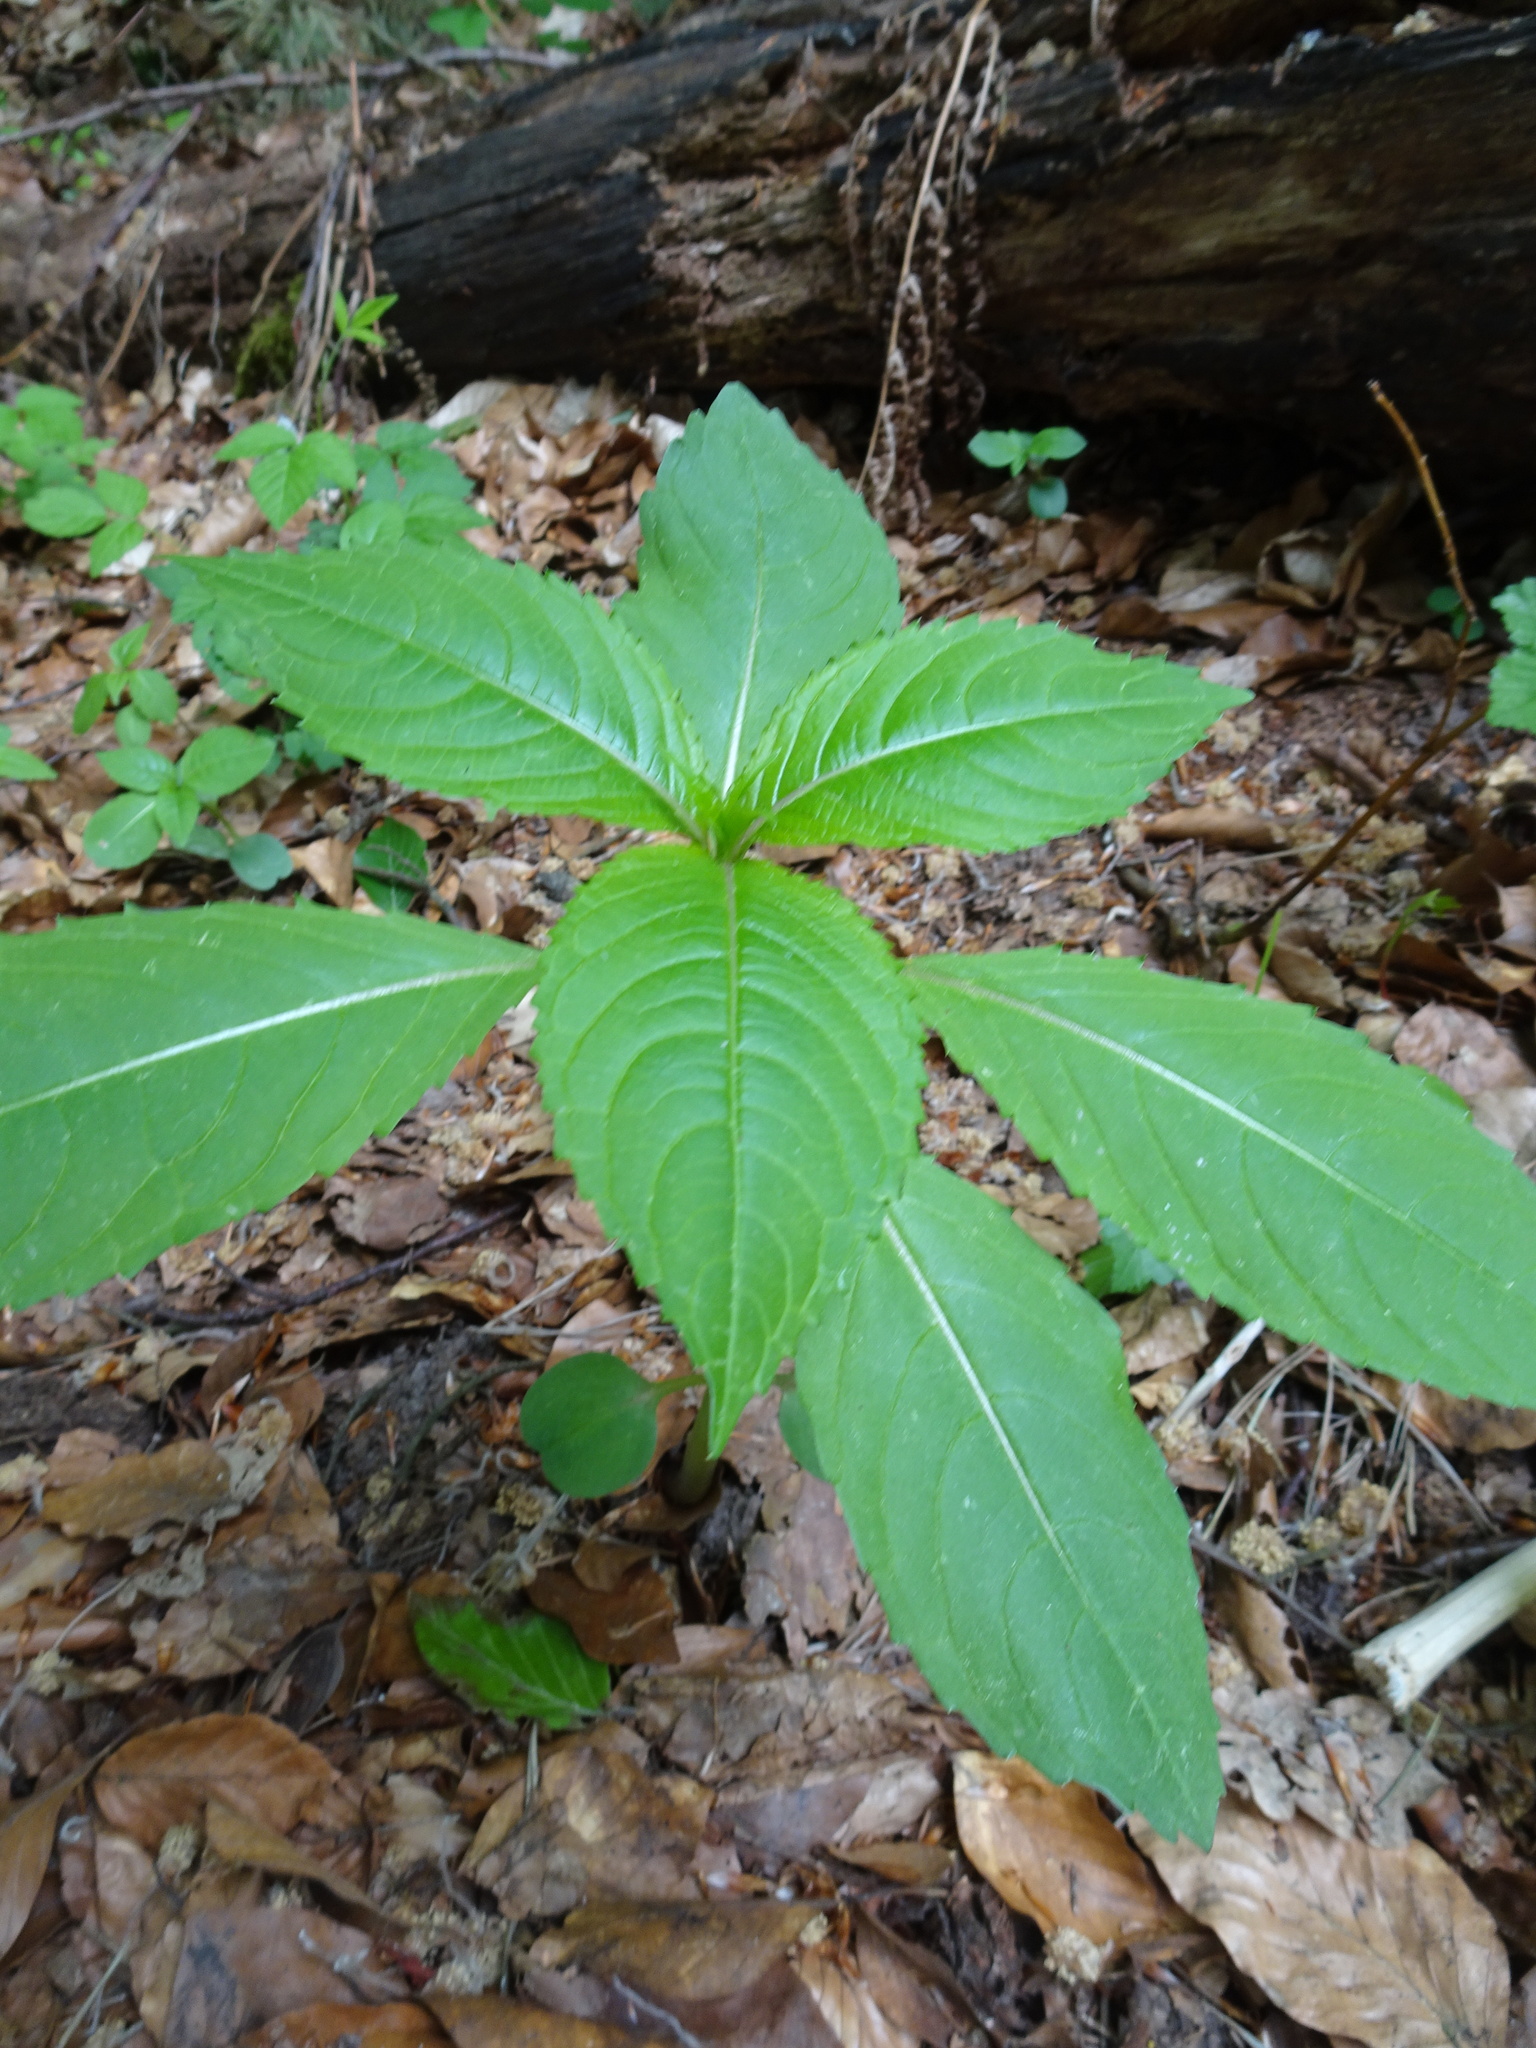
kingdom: Plantae
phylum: Tracheophyta
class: Magnoliopsida
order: Ericales
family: Balsaminaceae
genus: Impatiens
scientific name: Impatiens parviflora
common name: Small balsam
